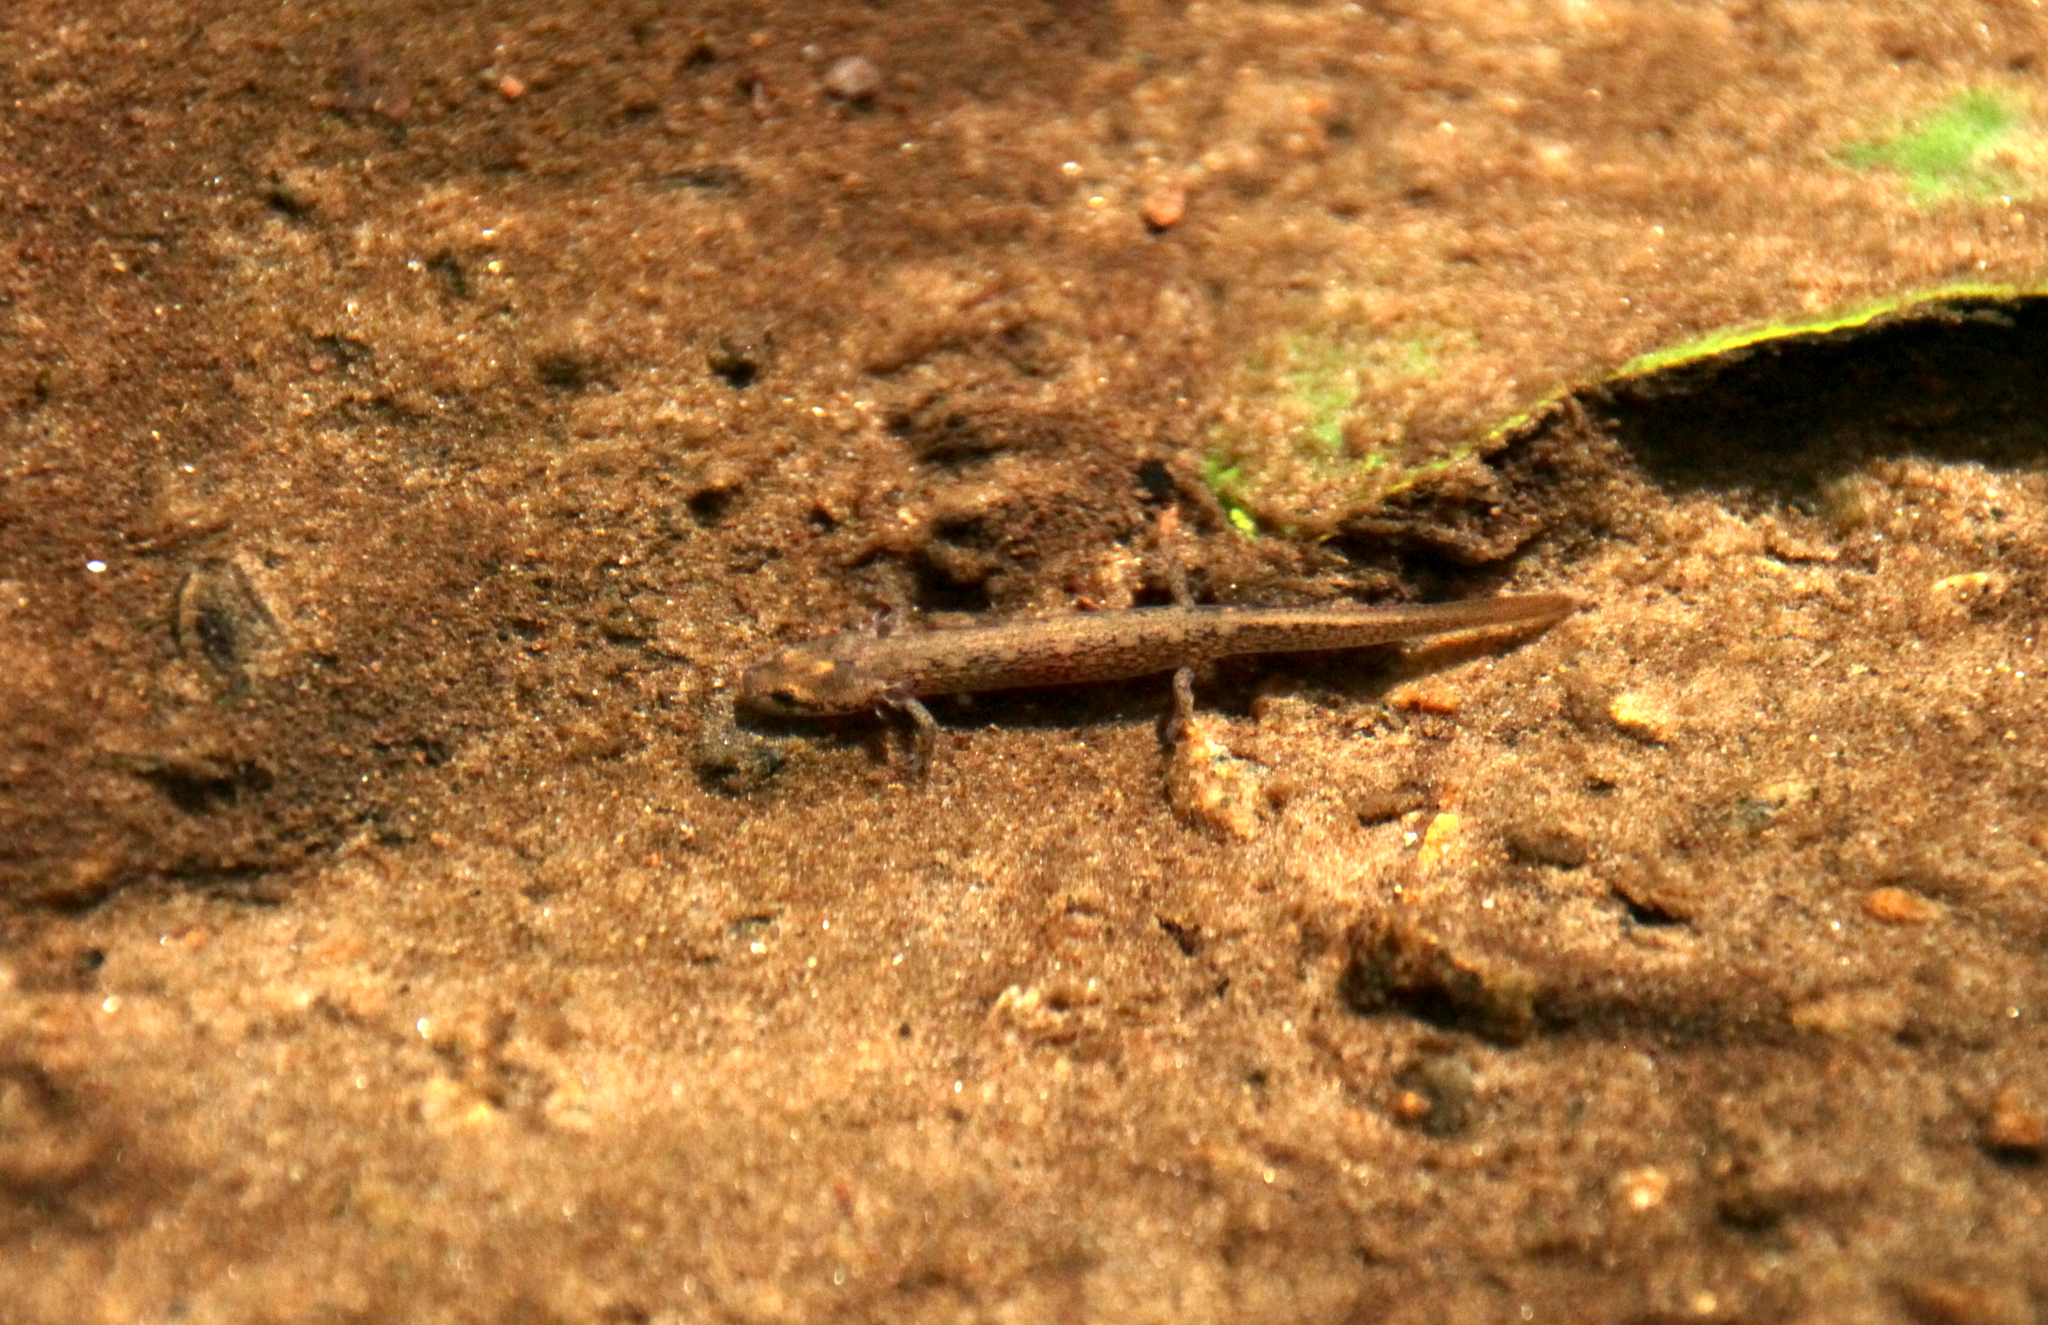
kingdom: Animalia
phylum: Chordata
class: Amphibia
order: Caudata
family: Plethodontidae
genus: Eurycea
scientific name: Eurycea bislineata
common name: Northern two-lined salamander
